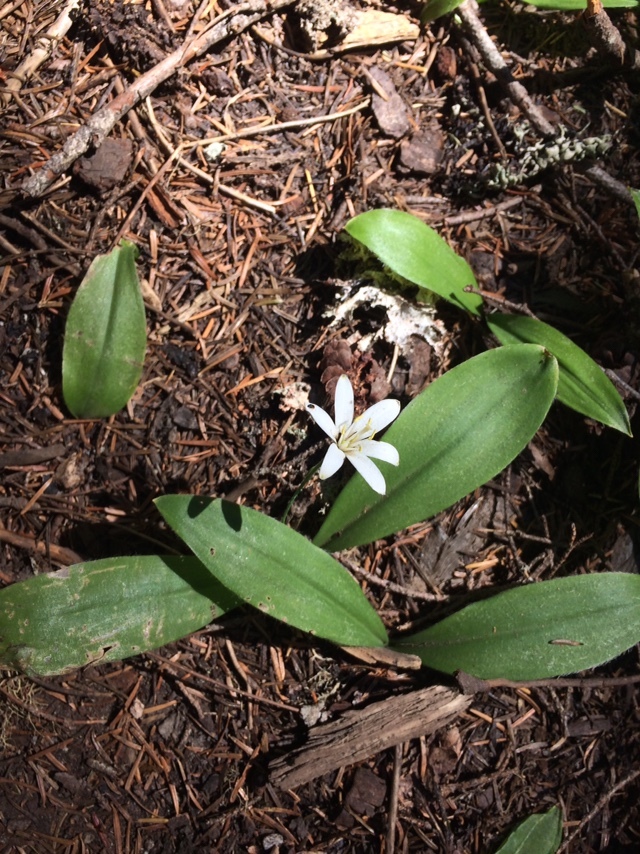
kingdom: Plantae
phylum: Tracheophyta
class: Liliopsida
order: Liliales
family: Liliaceae
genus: Clintonia
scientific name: Clintonia uniflora
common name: Queen's cup
